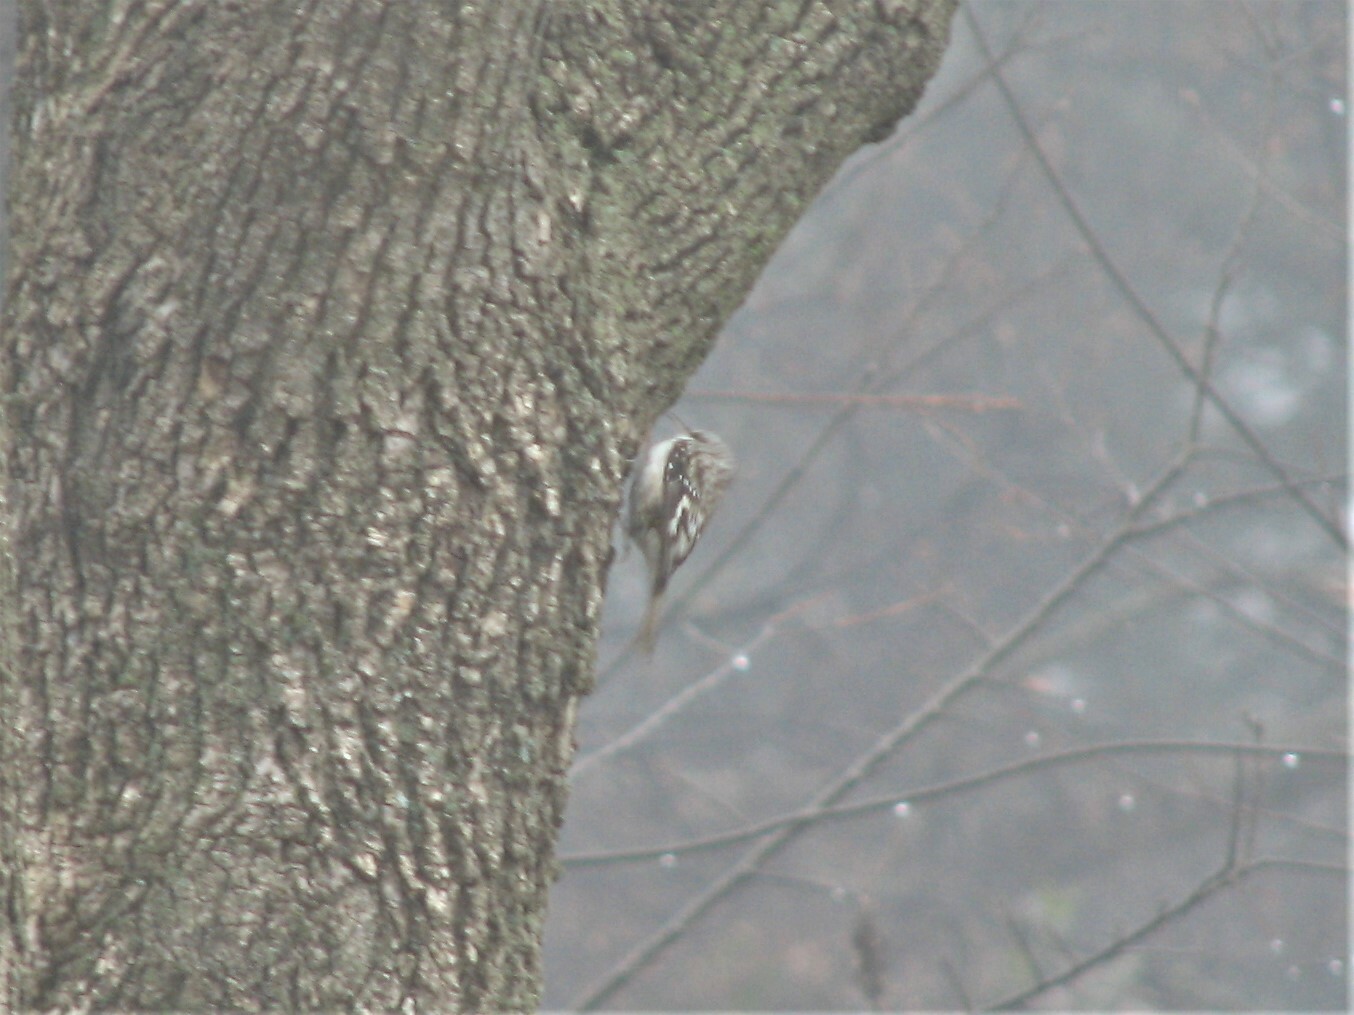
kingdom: Animalia
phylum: Chordata
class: Aves
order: Passeriformes
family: Certhiidae
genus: Certhia
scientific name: Certhia americana
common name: Brown creeper
